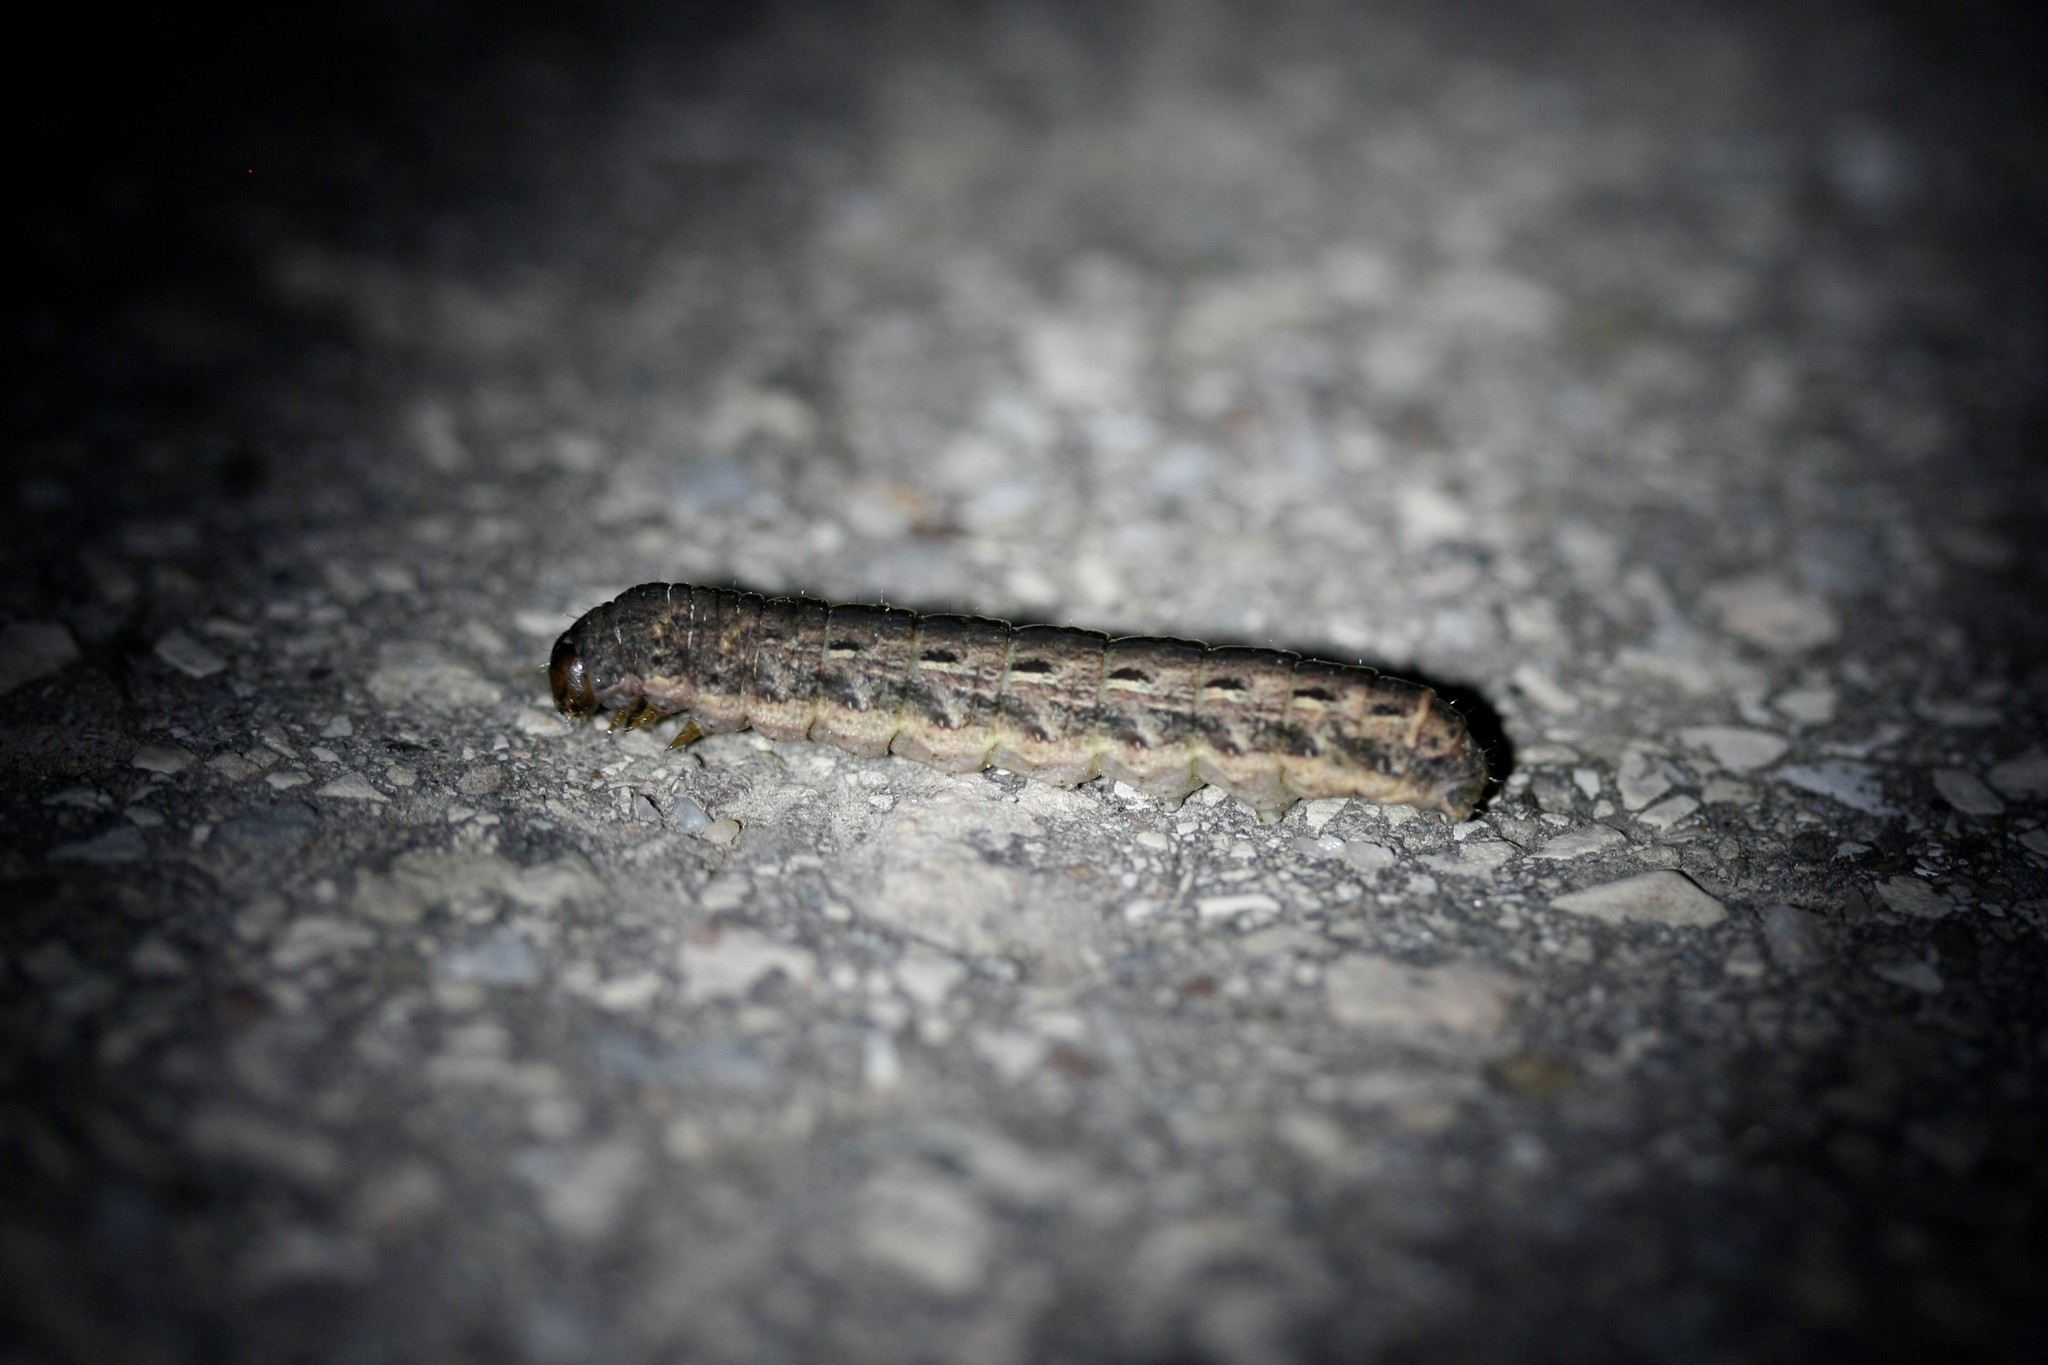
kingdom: Animalia
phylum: Arthropoda
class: Insecta
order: Lepidoptera
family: Noctuidae
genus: Noctua
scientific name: Noctua pronuba
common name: Large yellow underwing
